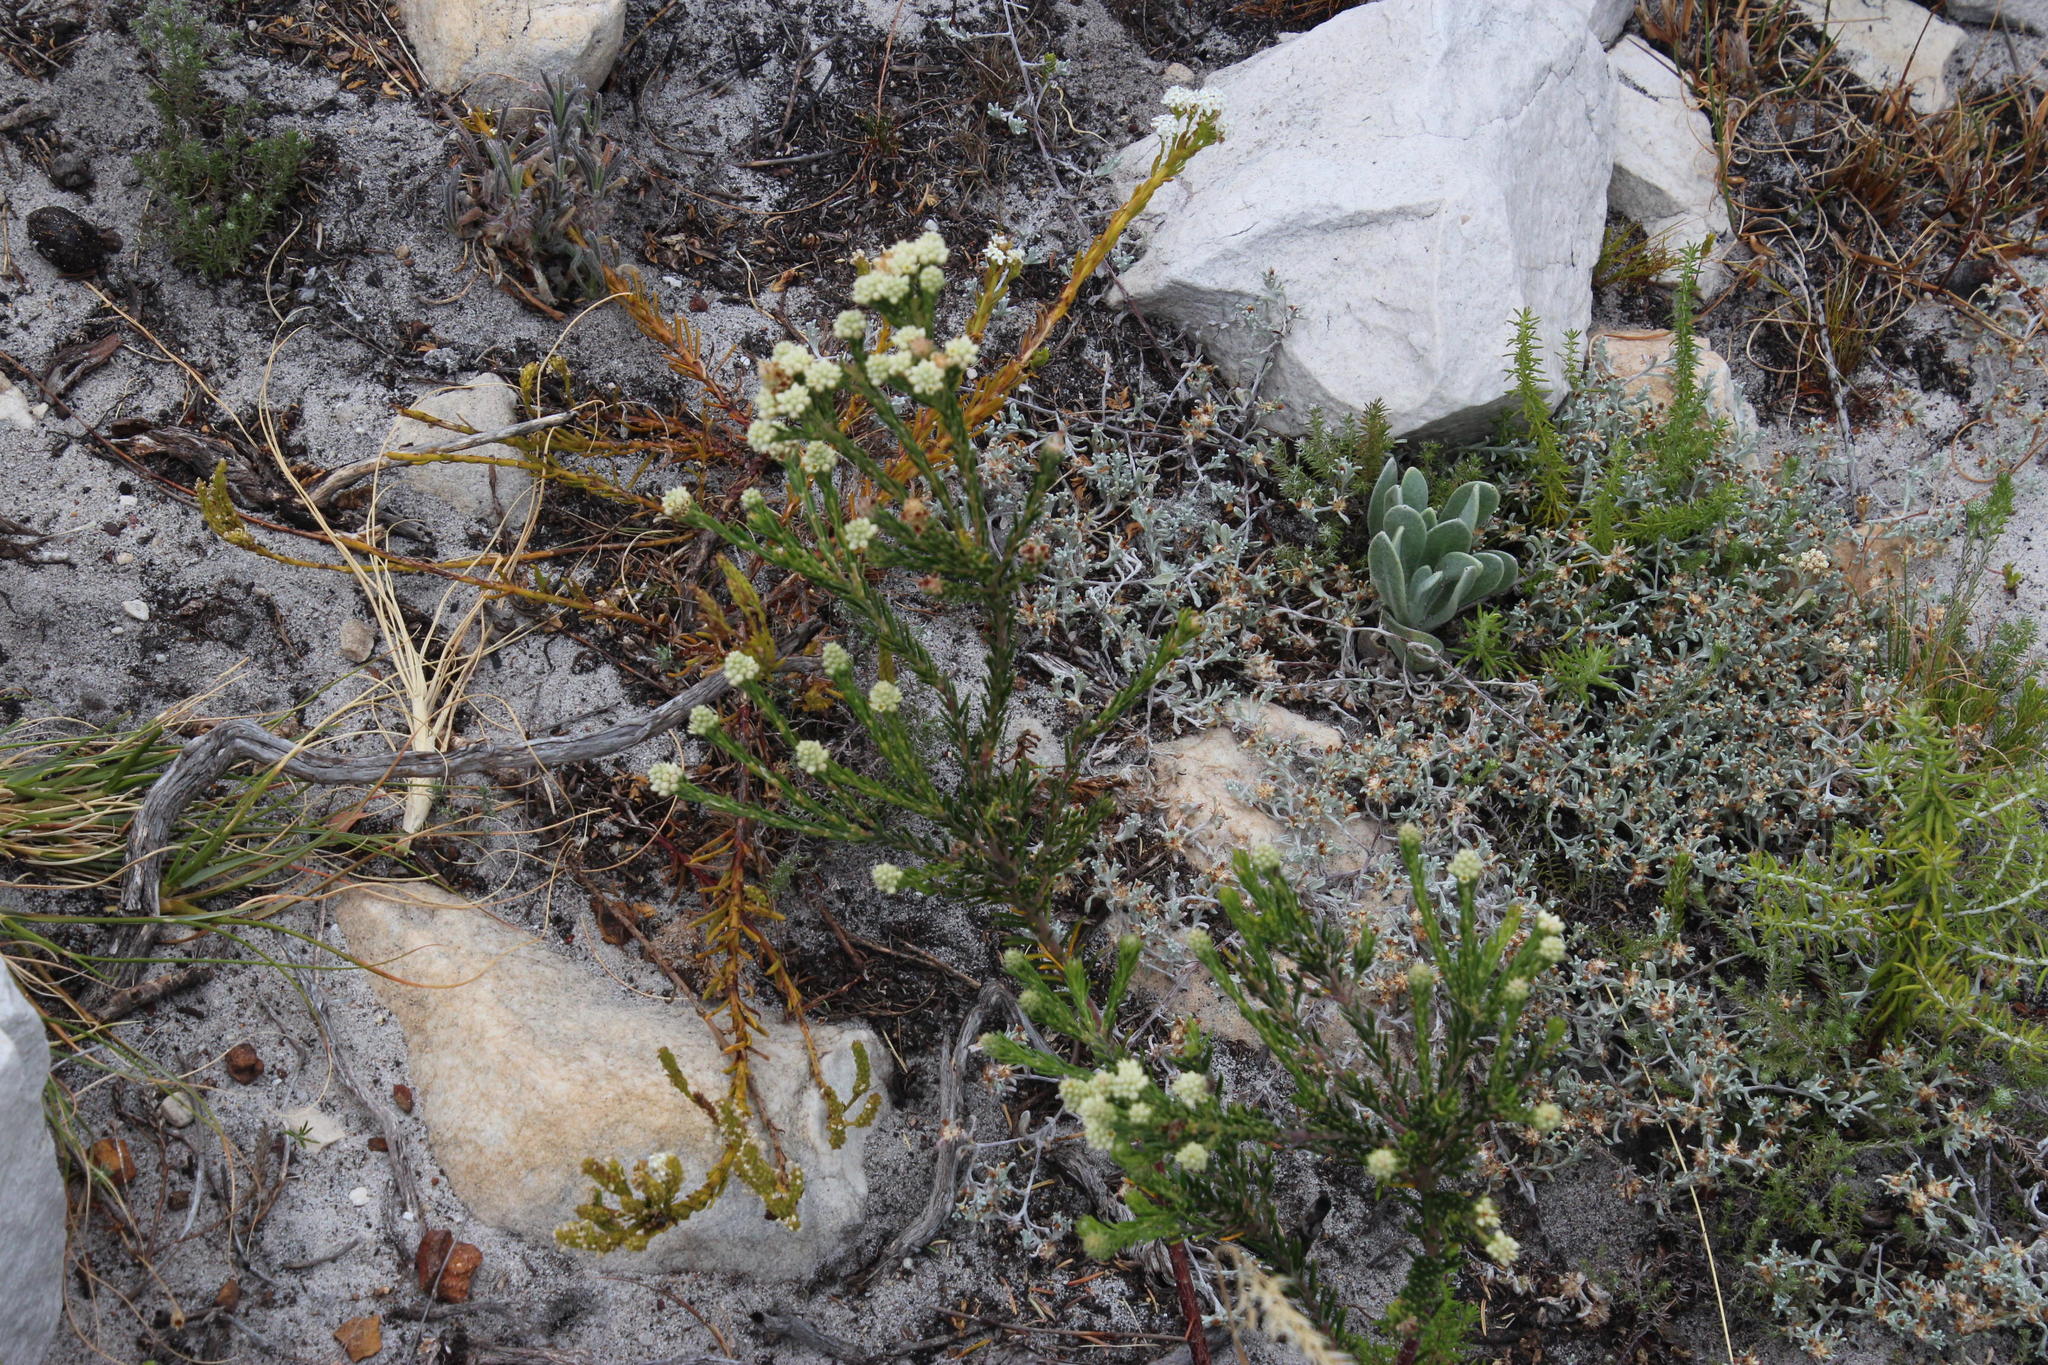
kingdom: Plantae
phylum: Tracheophyta
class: Magnoliopsida
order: Rosales
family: Rhamnaceae
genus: Phylica
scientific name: Phylica imberbis
